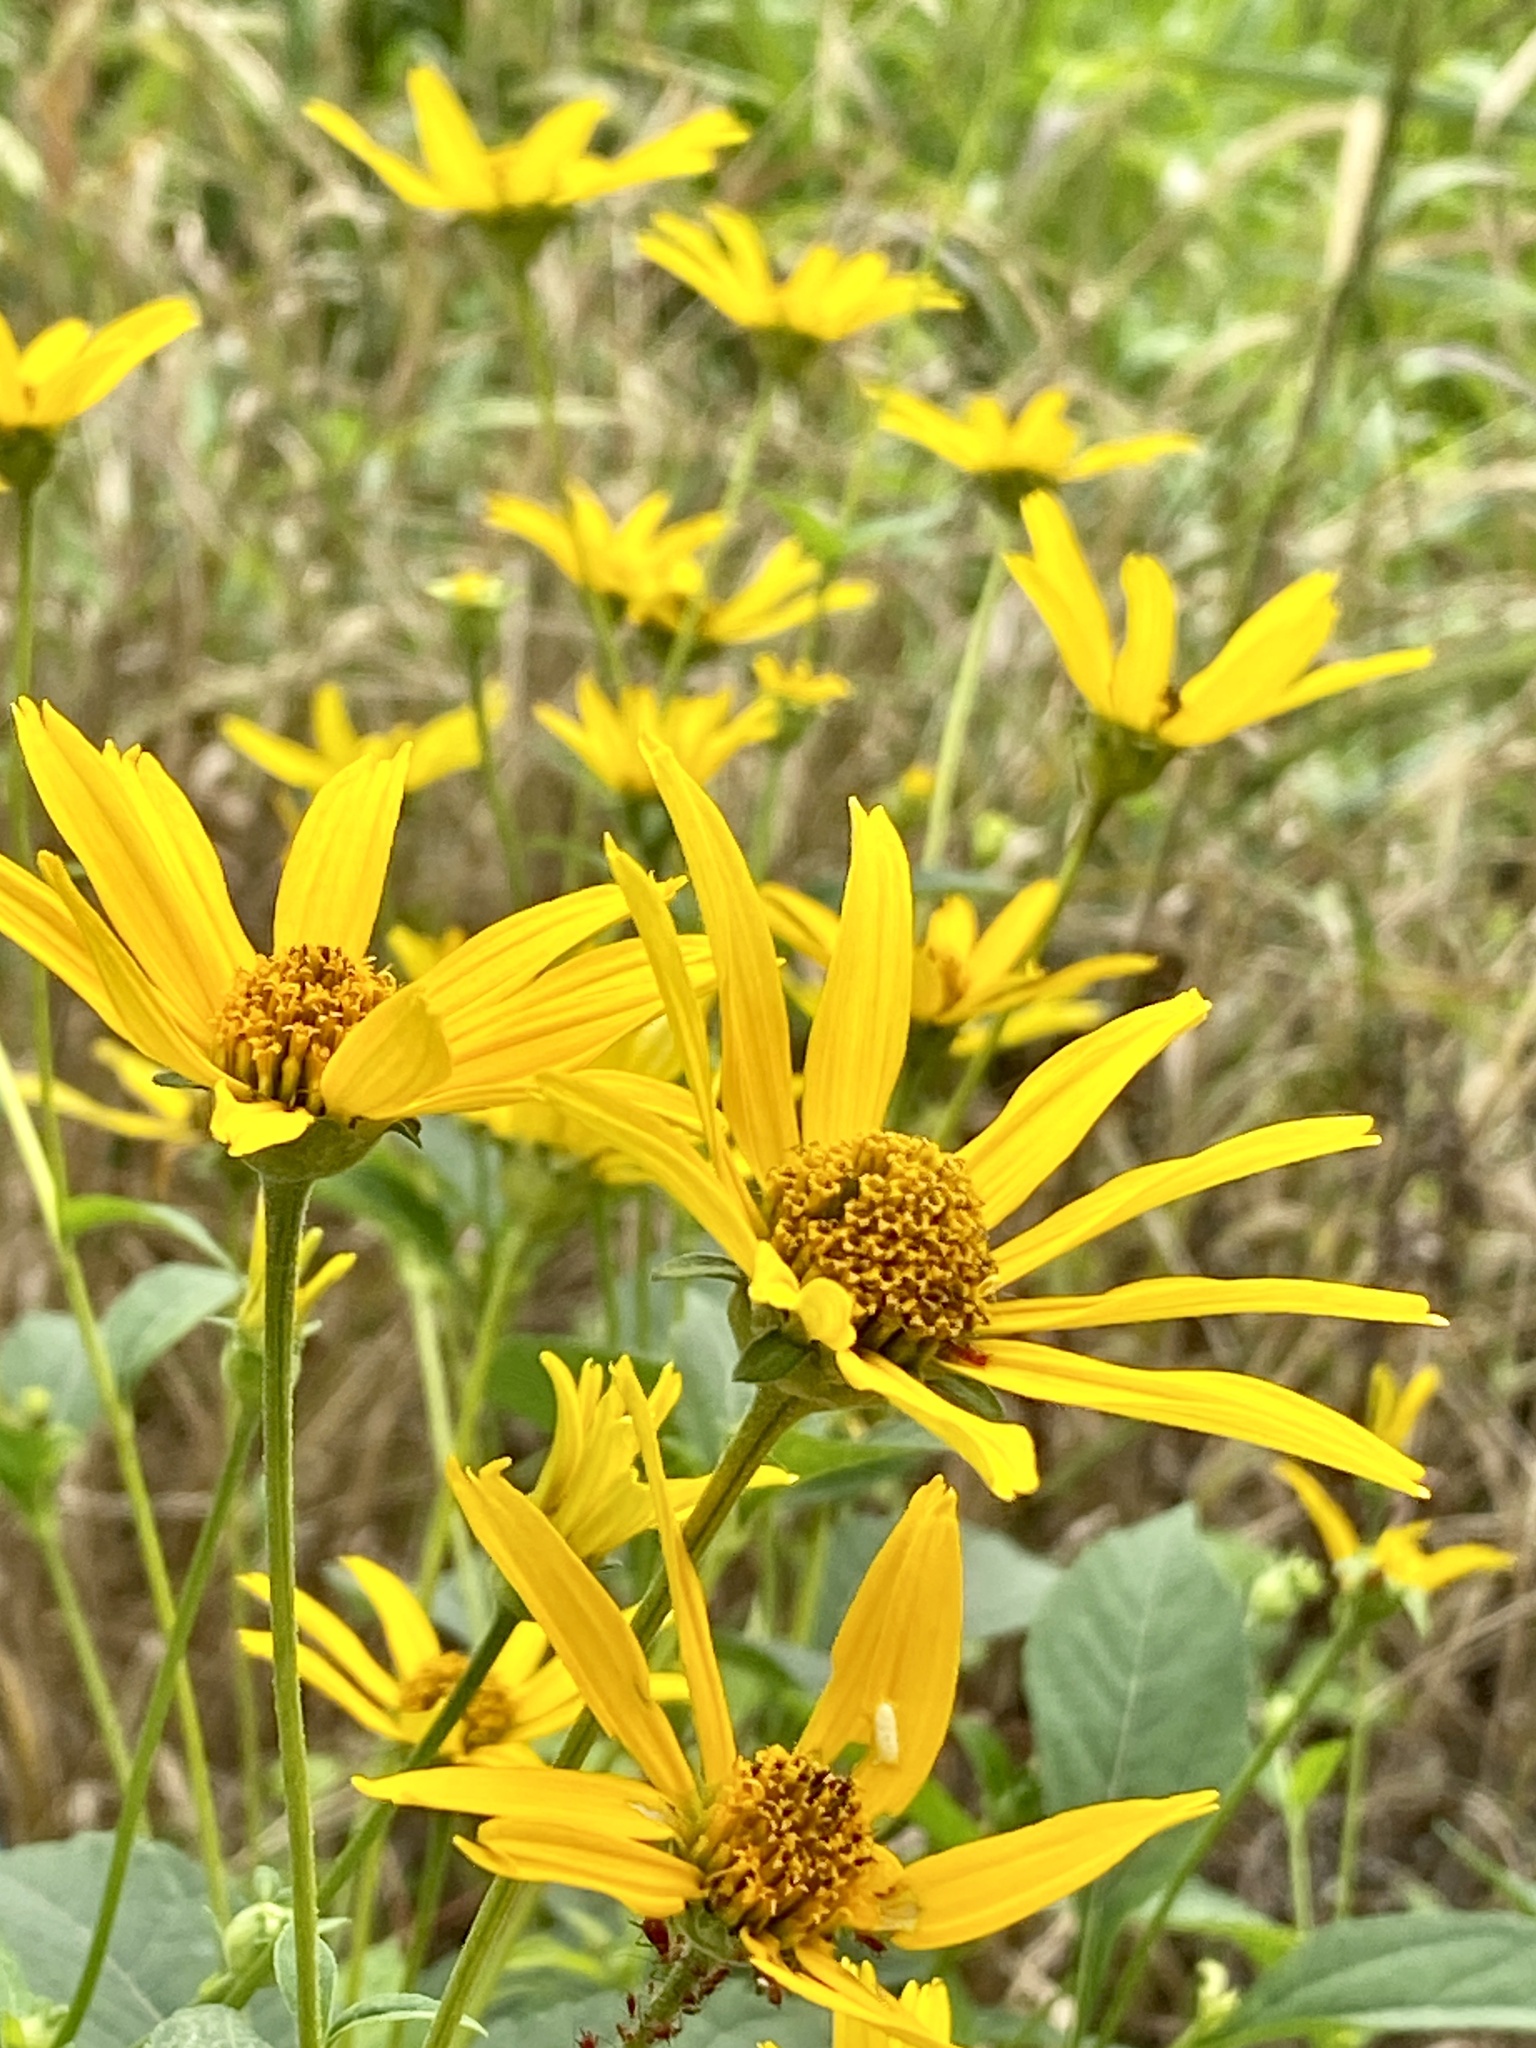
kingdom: Plantae
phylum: Tracheophyta
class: Magnoliopsida
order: Asterales
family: Asteraceae
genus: Heliopsis
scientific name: Heliopsis helianthoides
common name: False sunflower
